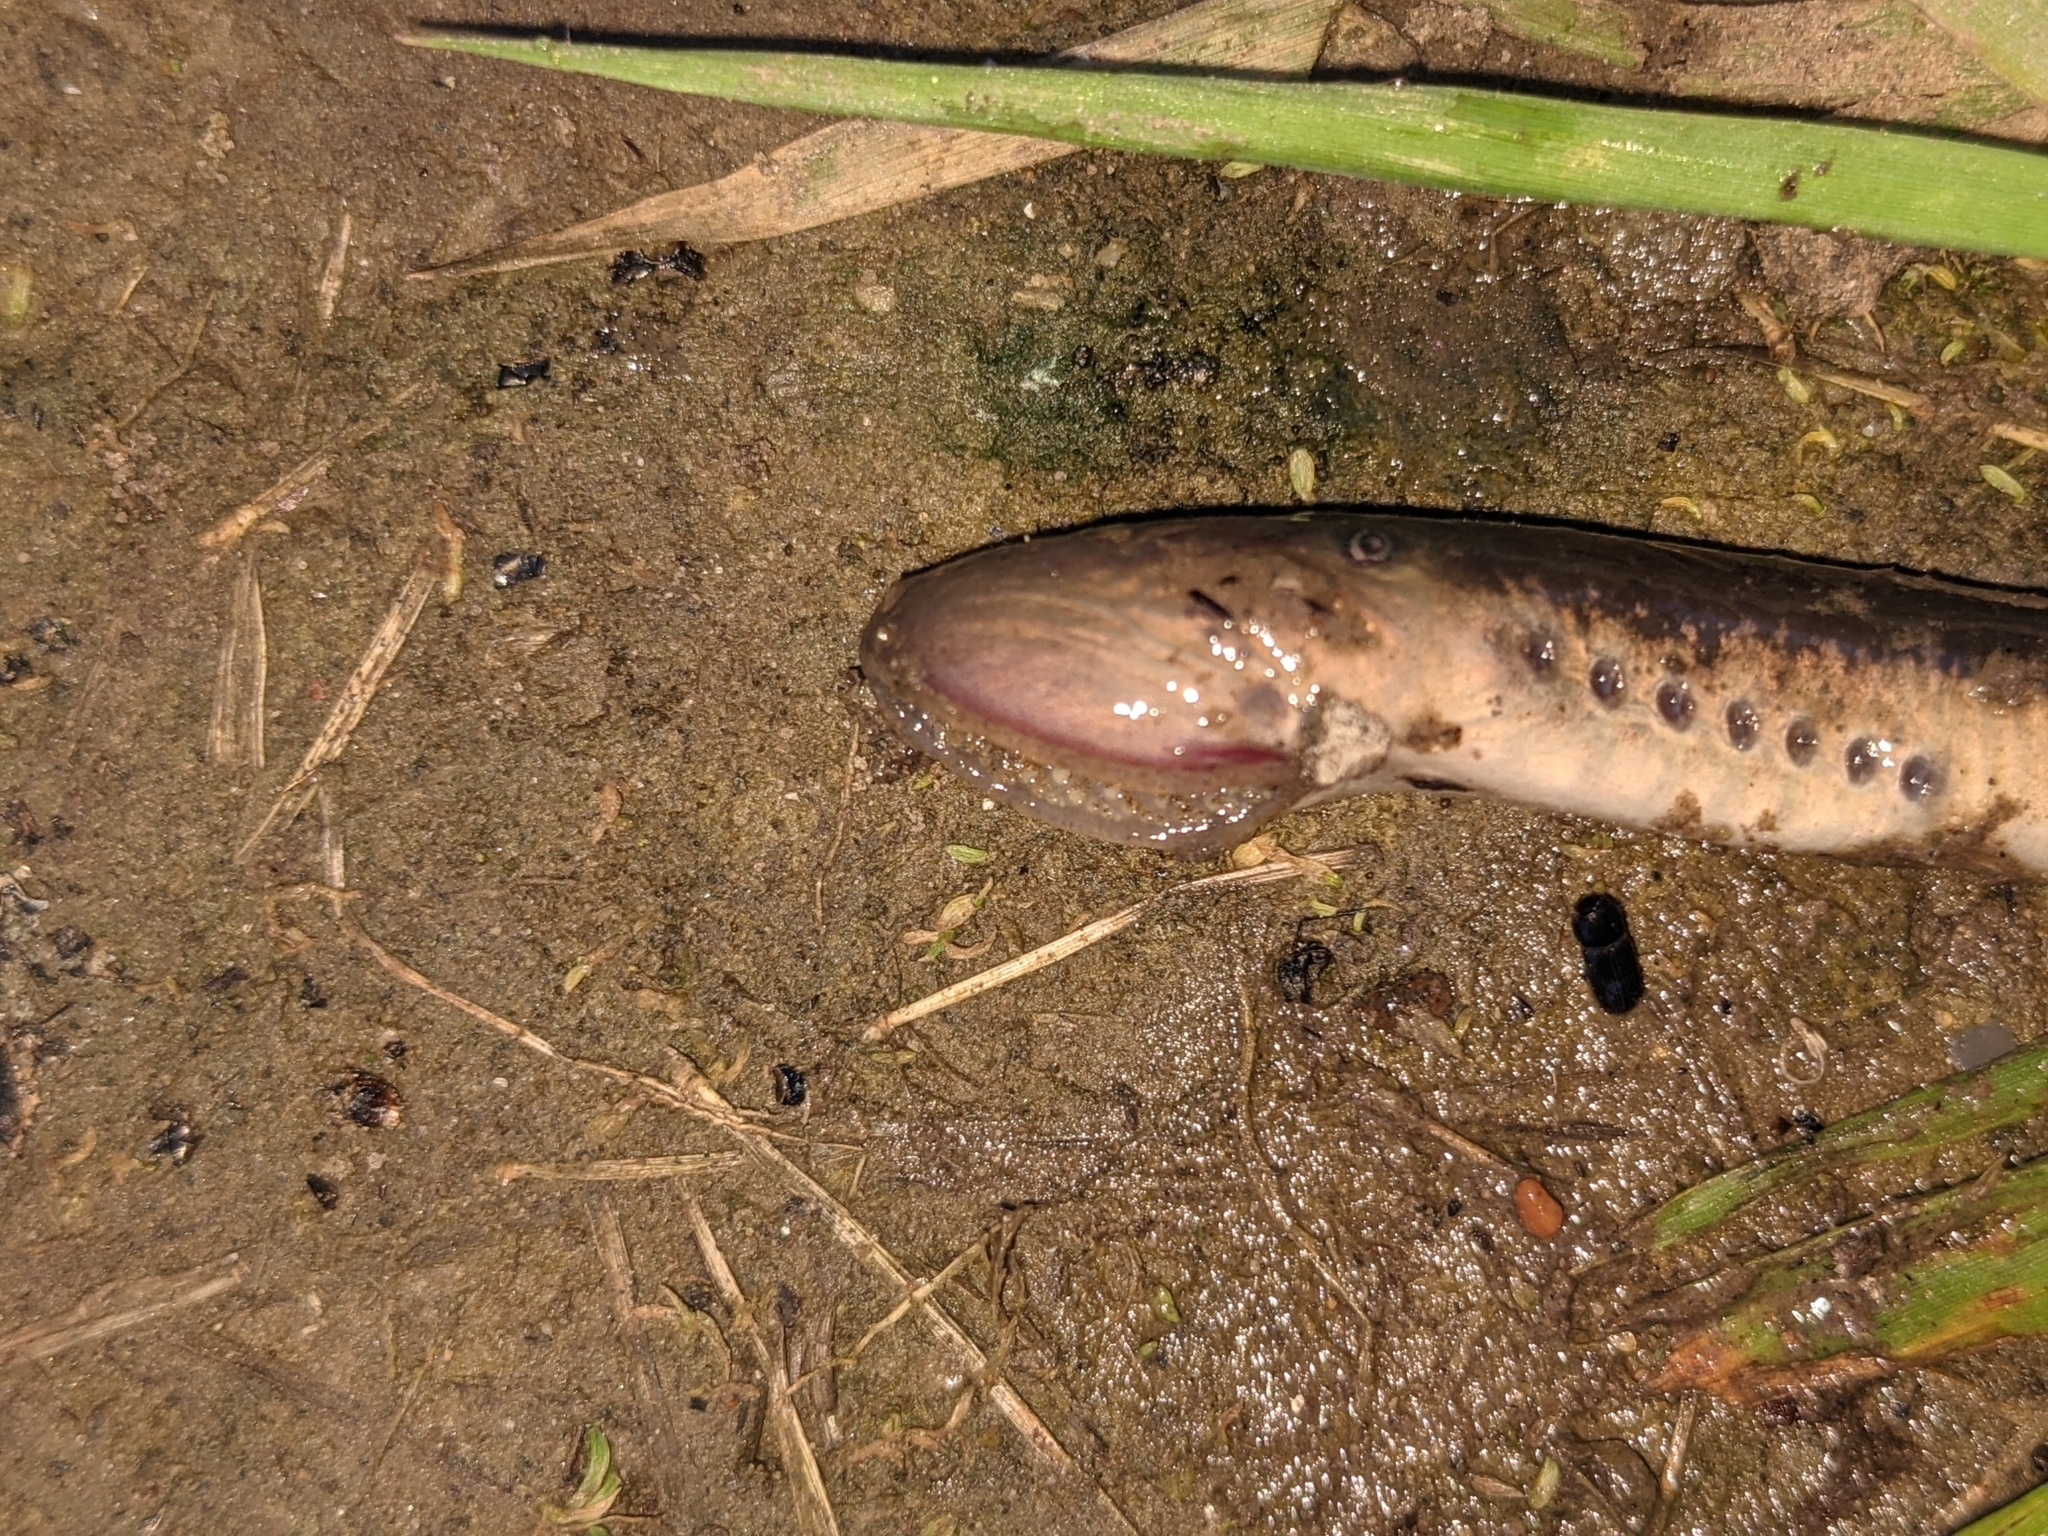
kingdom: Animalia
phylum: Chordata
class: Petromyzonti
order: Petromyzontiformes
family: Petromyzontidae
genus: Ichthyomyzon
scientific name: Ichthyomyzon unicuspis
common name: Silver lamprey
